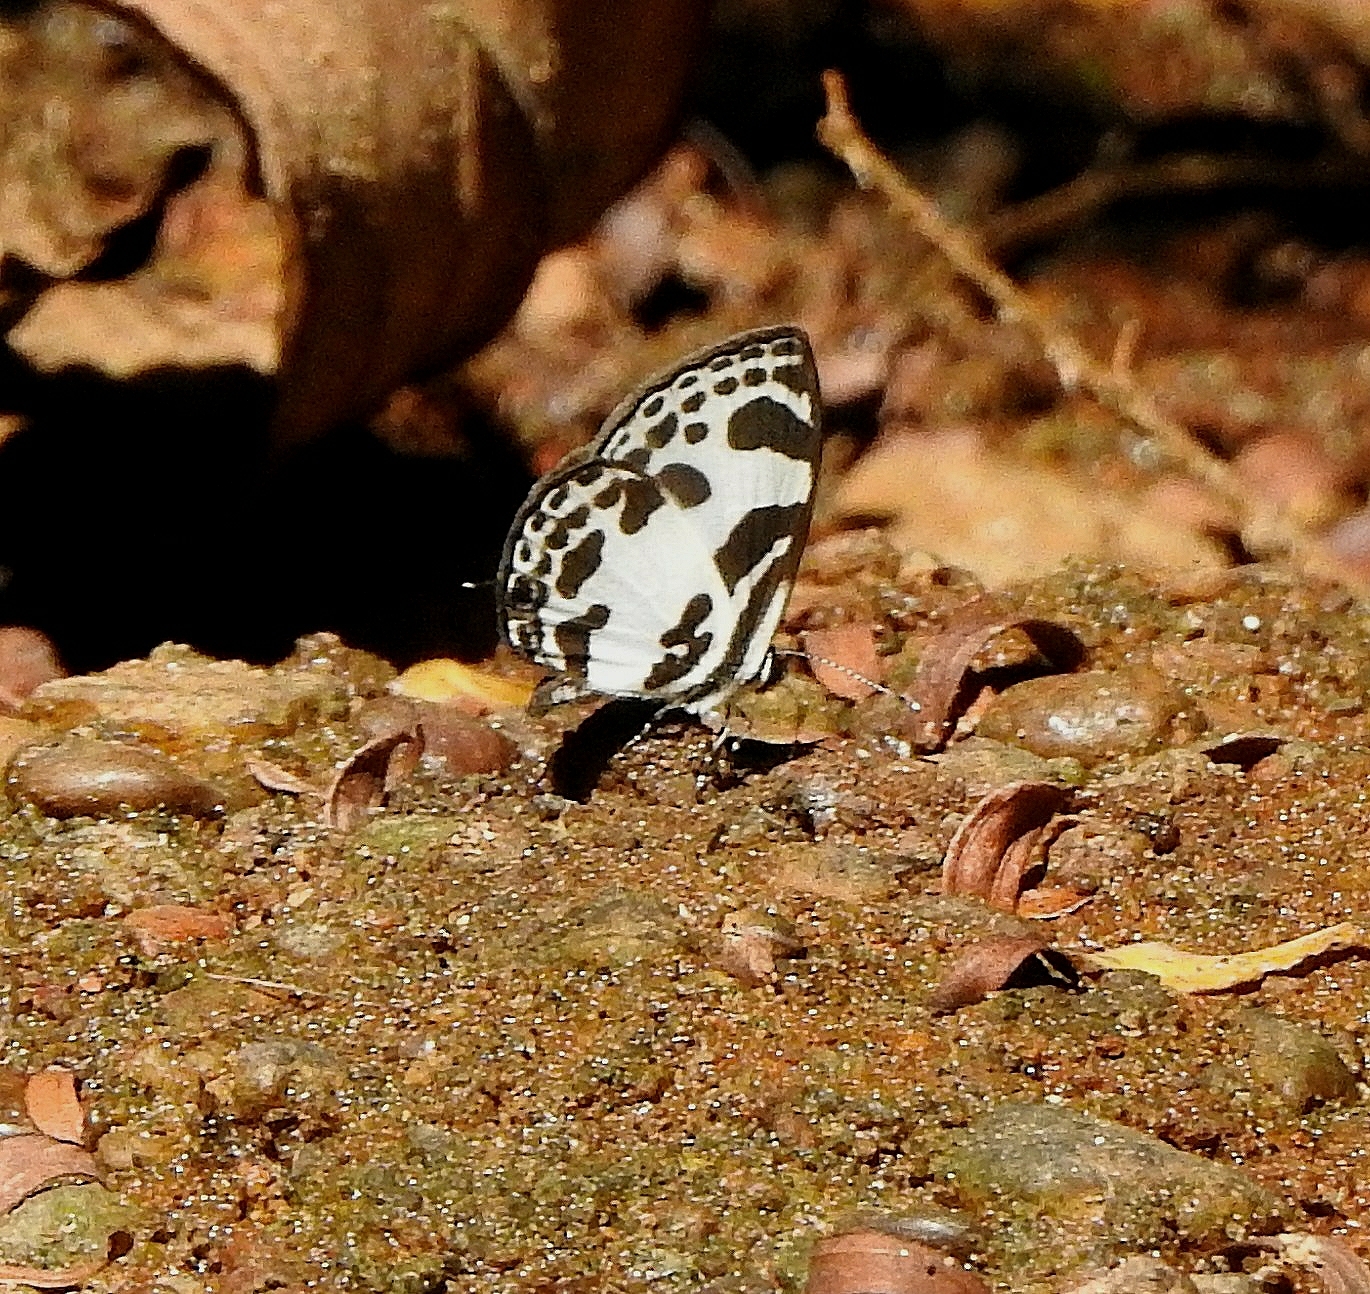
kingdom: Animalia
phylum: Arthropoda
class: Insecta
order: Lepidoptera
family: Lycaenidae
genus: Discolampa
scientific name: Discolampa ethion
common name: Banded blue pierrot
